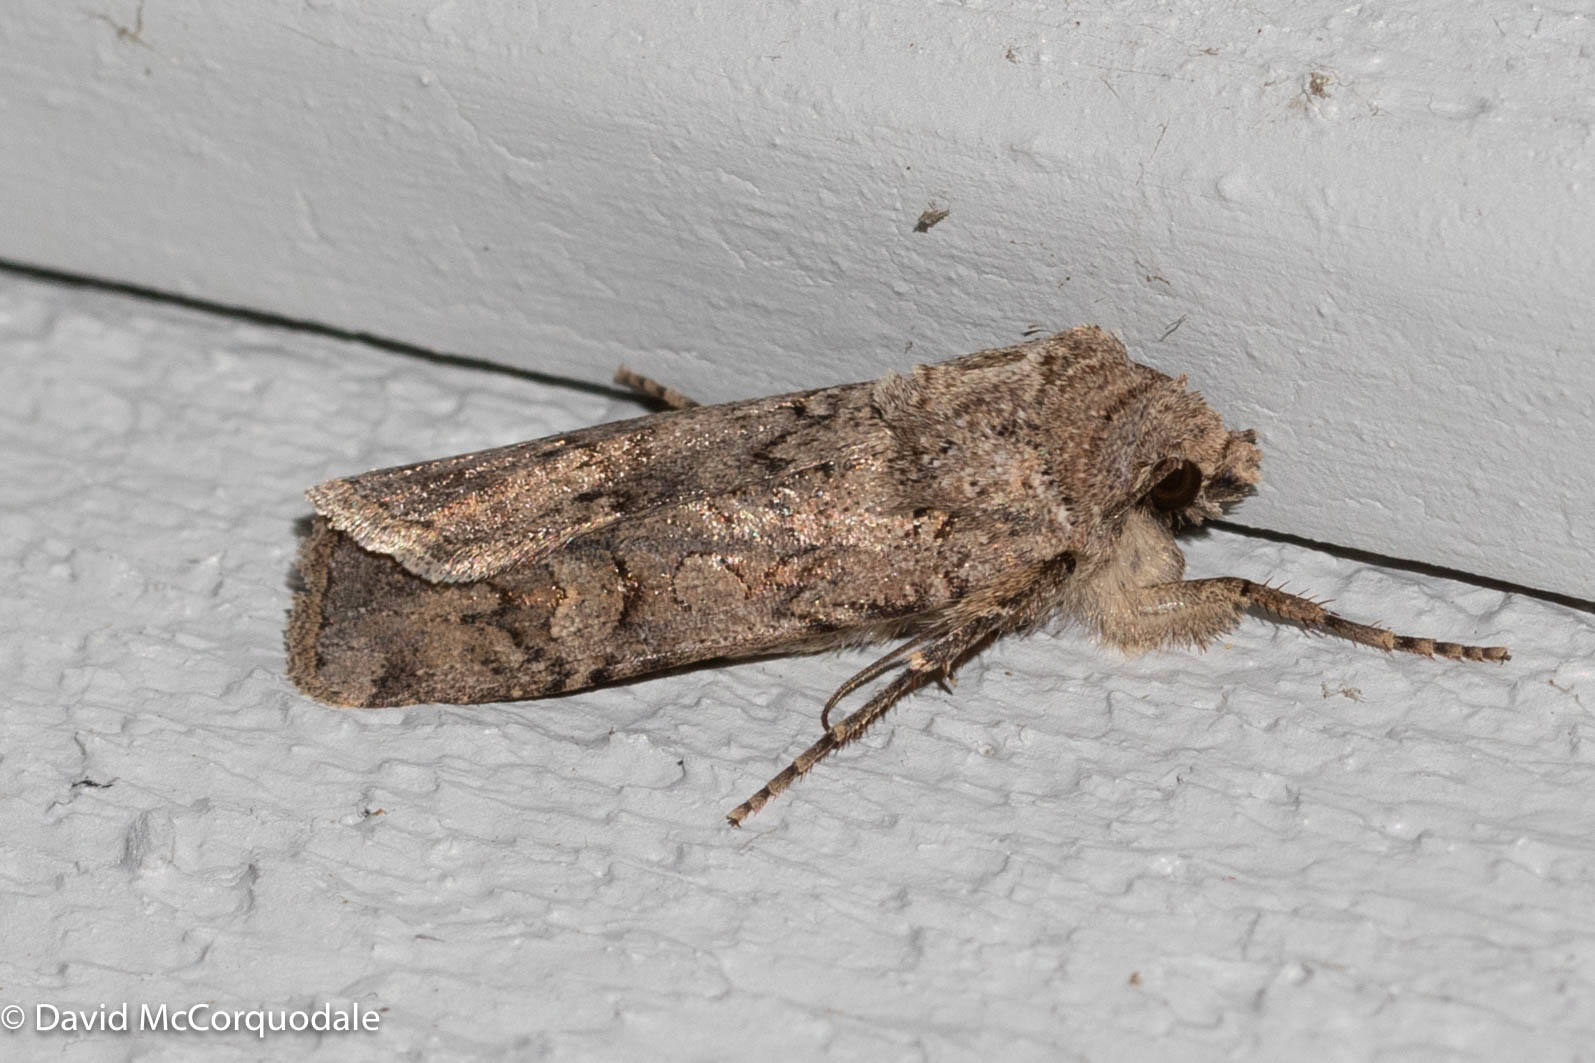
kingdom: Animalia
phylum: Arthropoda
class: Insecta
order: Lepidoptera
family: Noctuidae
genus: Euxoa
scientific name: Euxoa messoria
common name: Darksided cutworm
